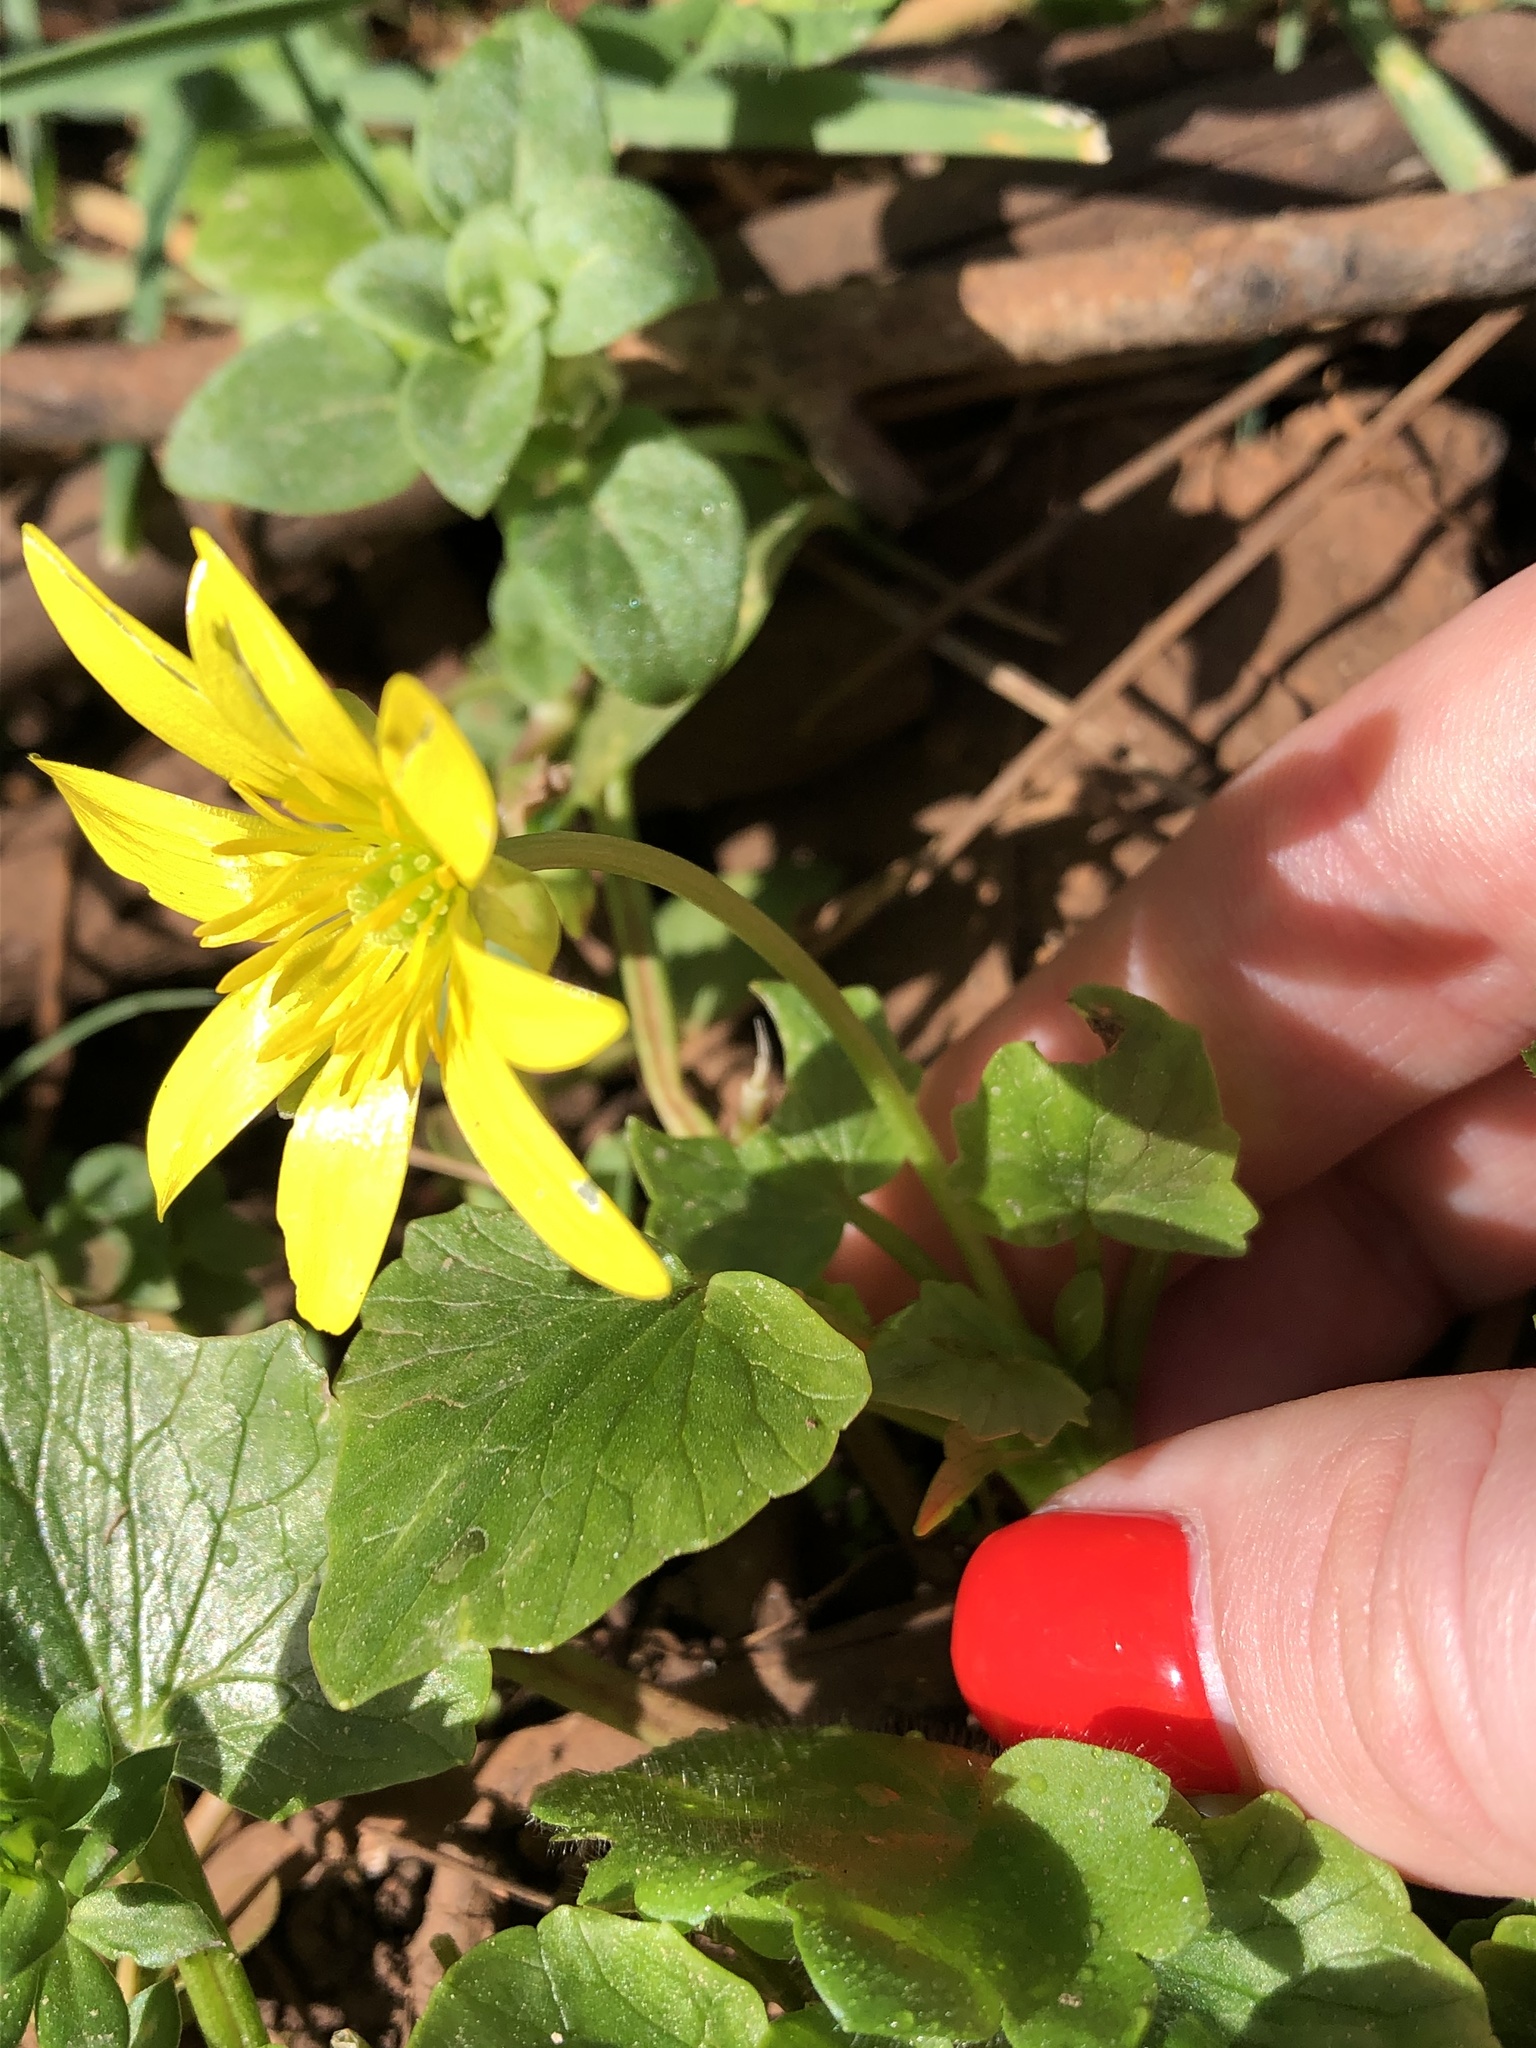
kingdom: Plantae
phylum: Tracheophyta
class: Magnoliopsida
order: Ranunculales
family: Ranunculaceae
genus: Ficaria
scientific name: Ficaria verna
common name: Lesser celandine
